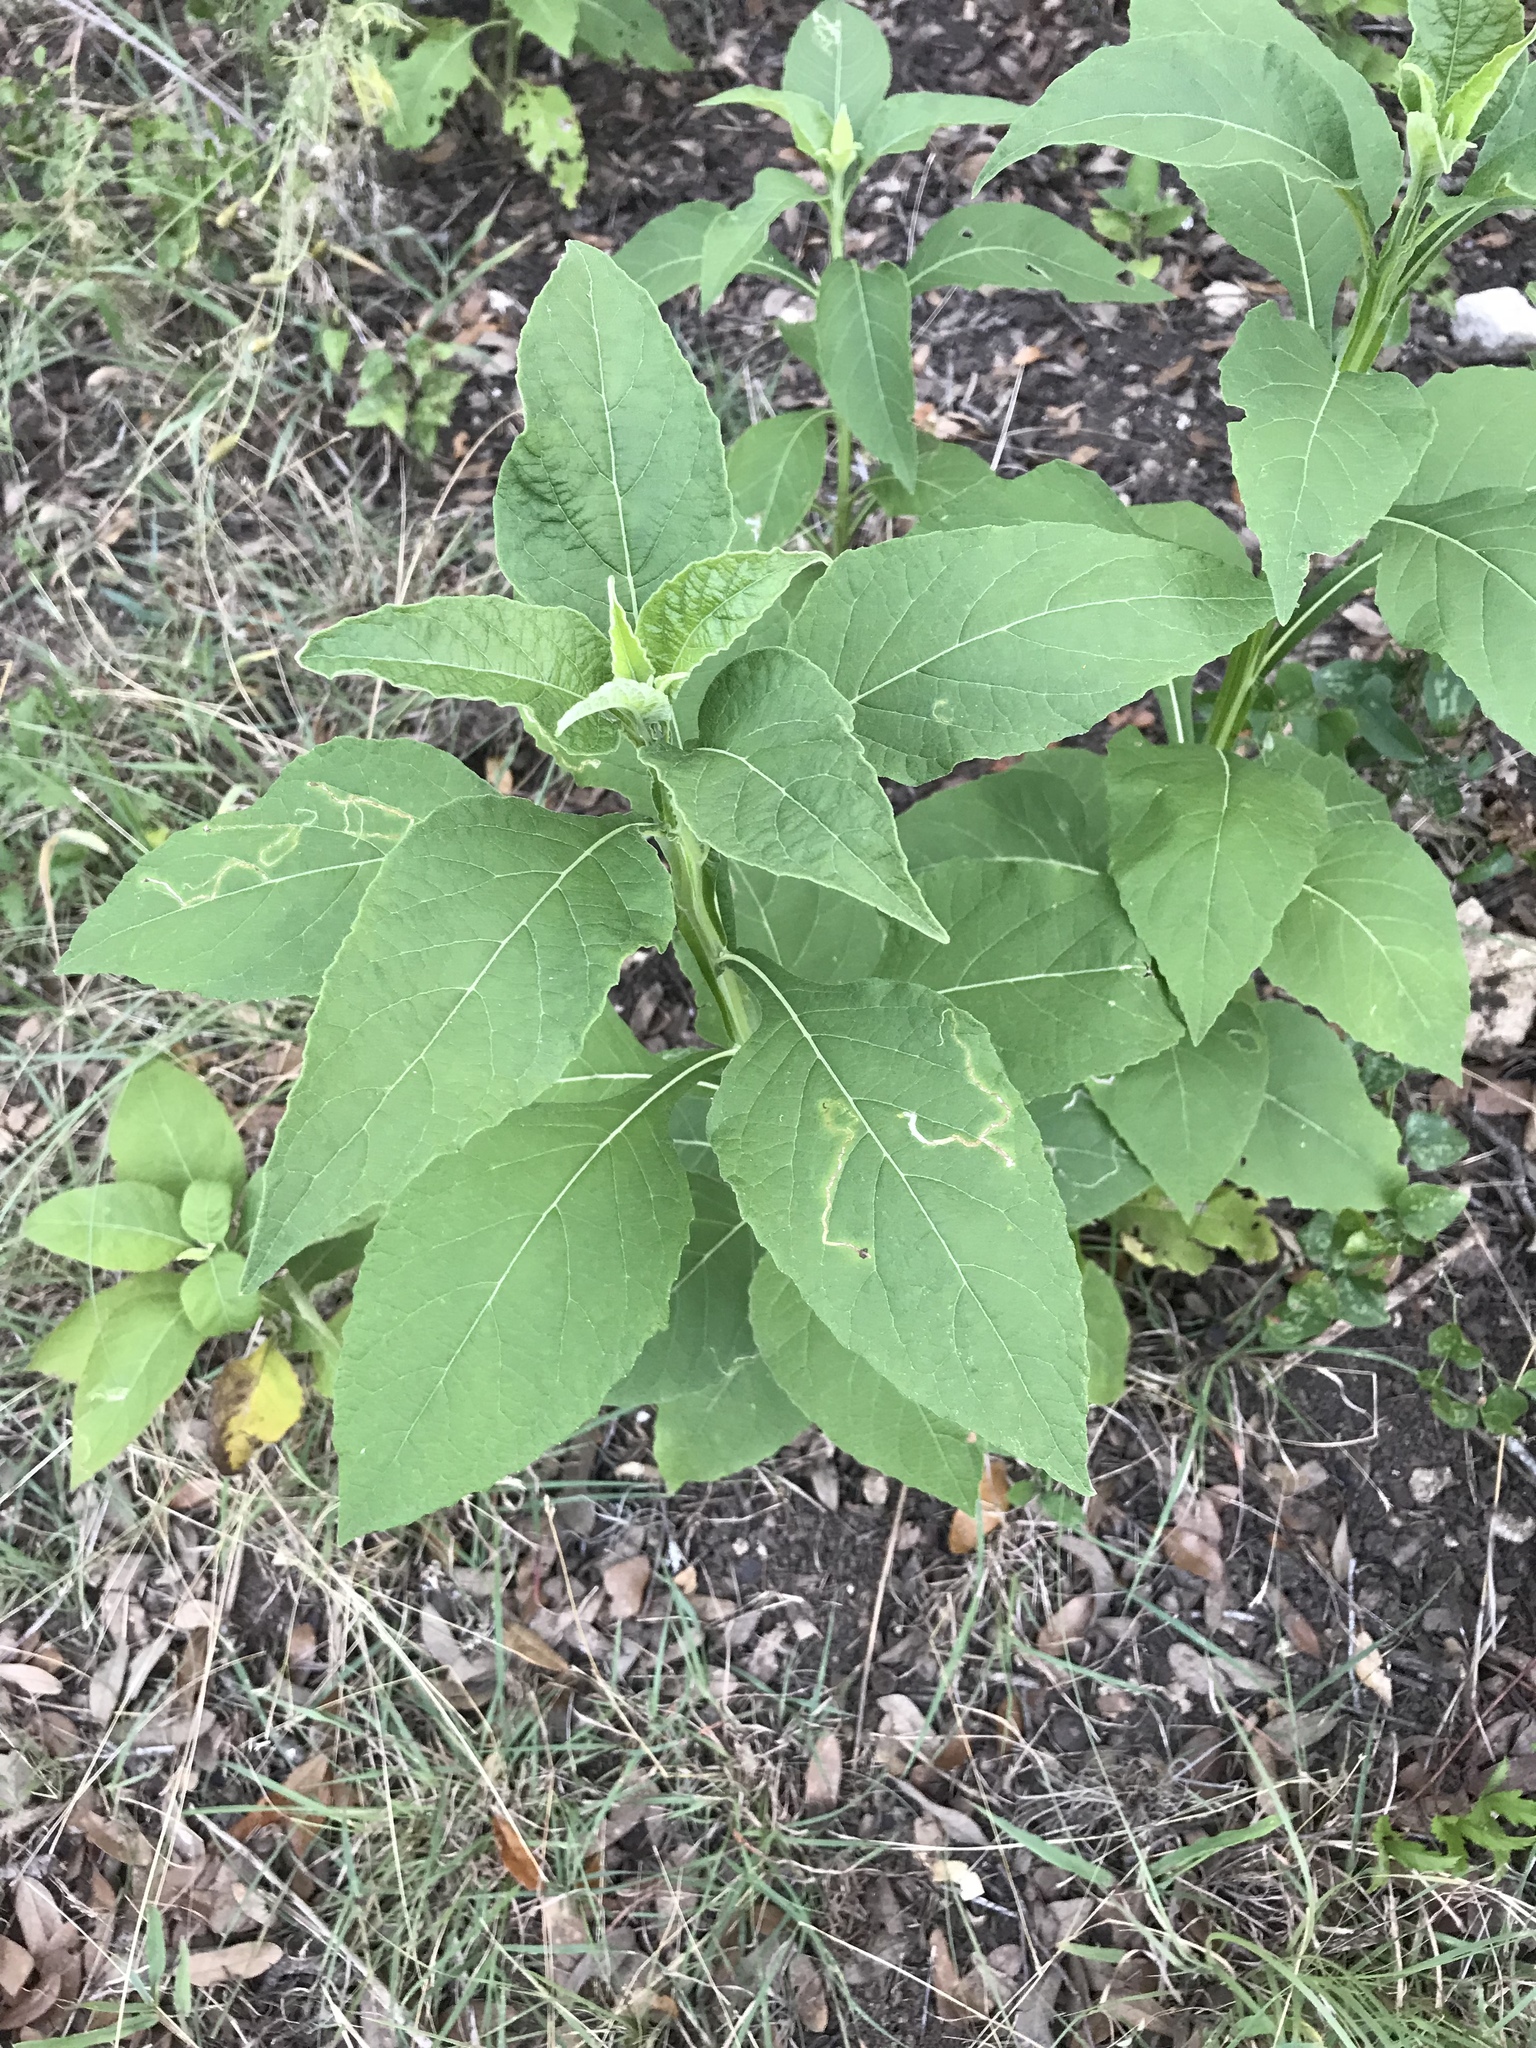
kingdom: Plantae
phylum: Tracheophyta
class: Magnoliopsida
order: Asterales
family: Asteraceae
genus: Verbesina
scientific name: Verbesina virginica
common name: Frostweed
